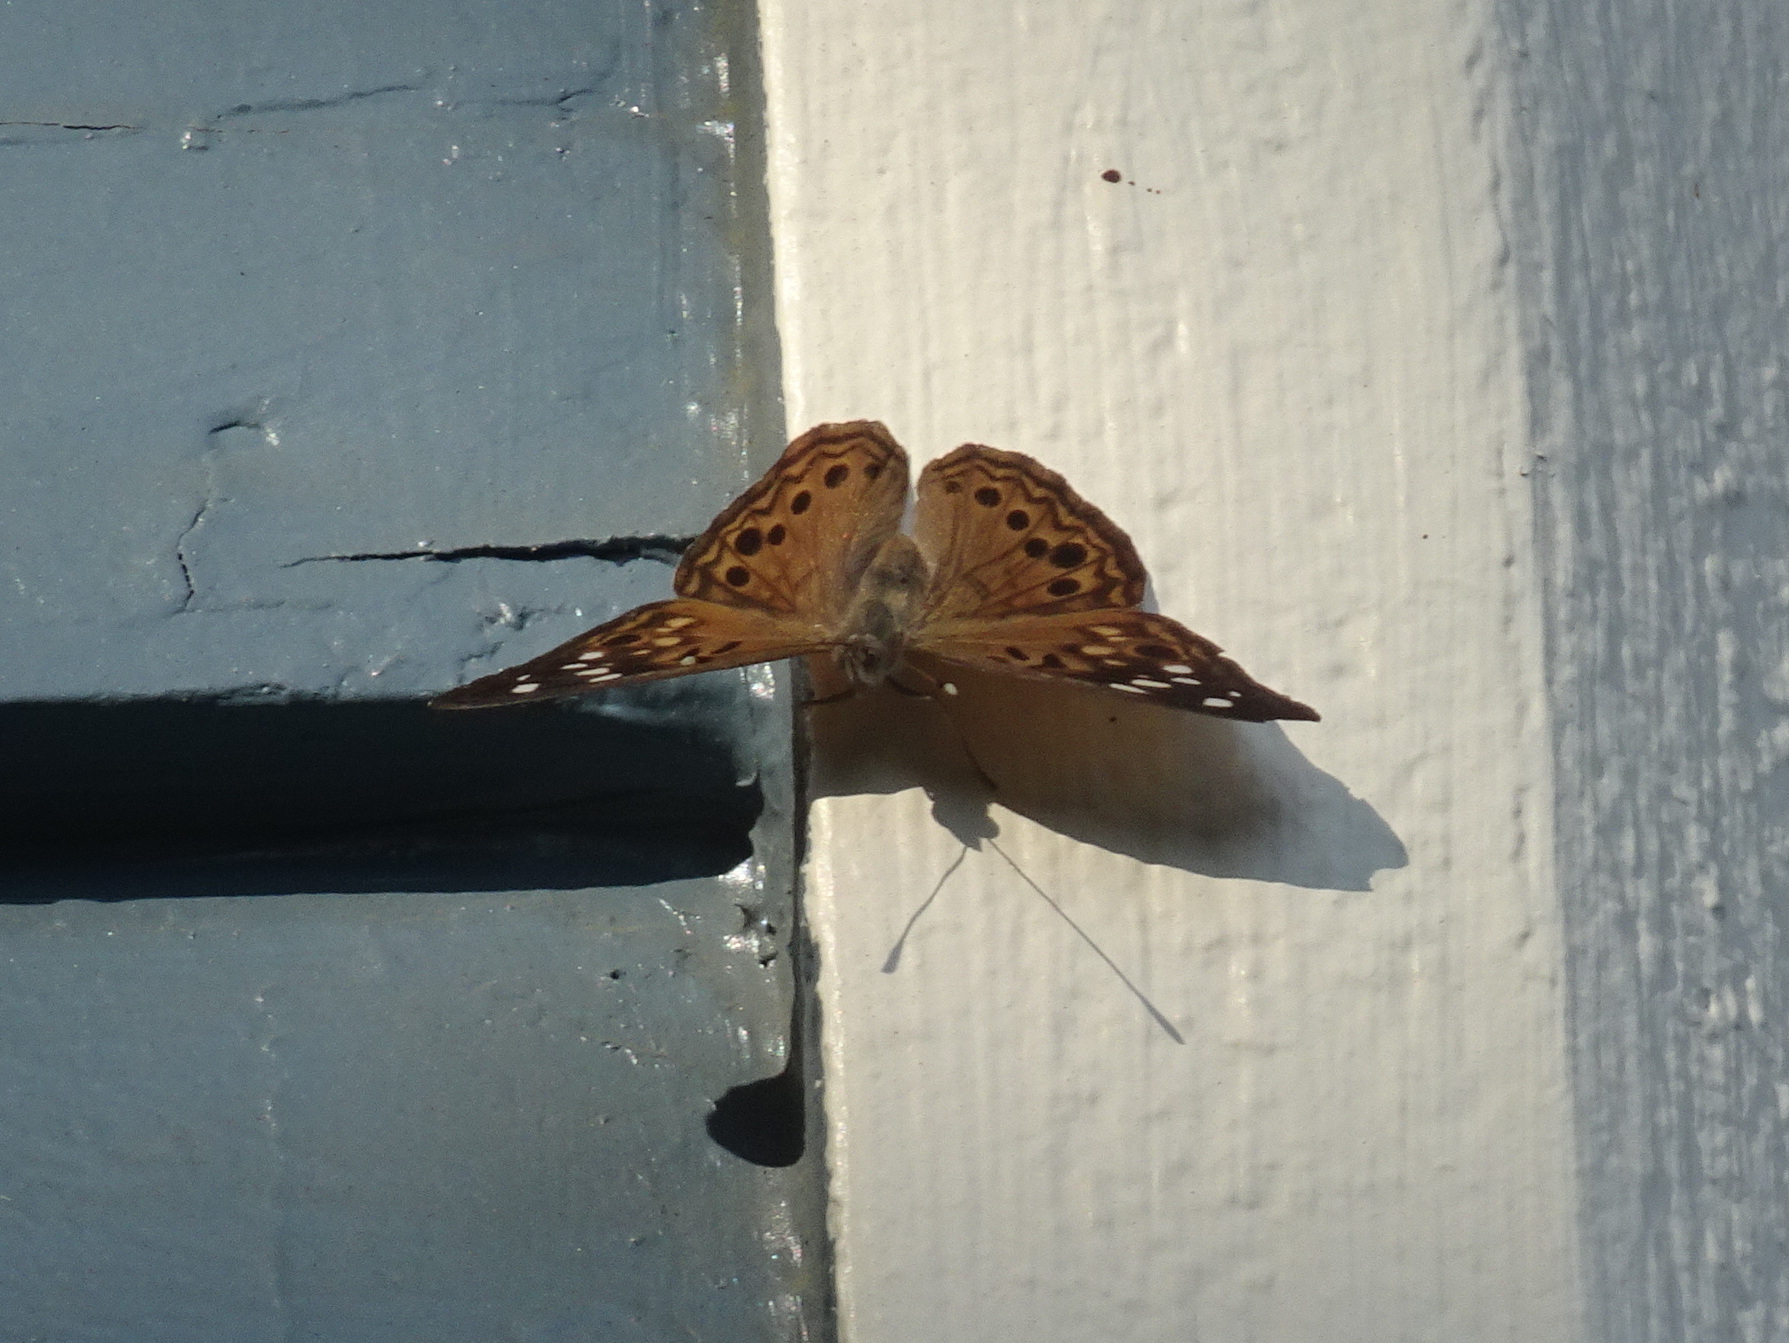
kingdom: Animalia
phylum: Arthropoda
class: Insecta
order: Lepidoptera
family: Nymphalidae
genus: Asterocampa
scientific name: Asterocampa celtis
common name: Hackberry emperor
